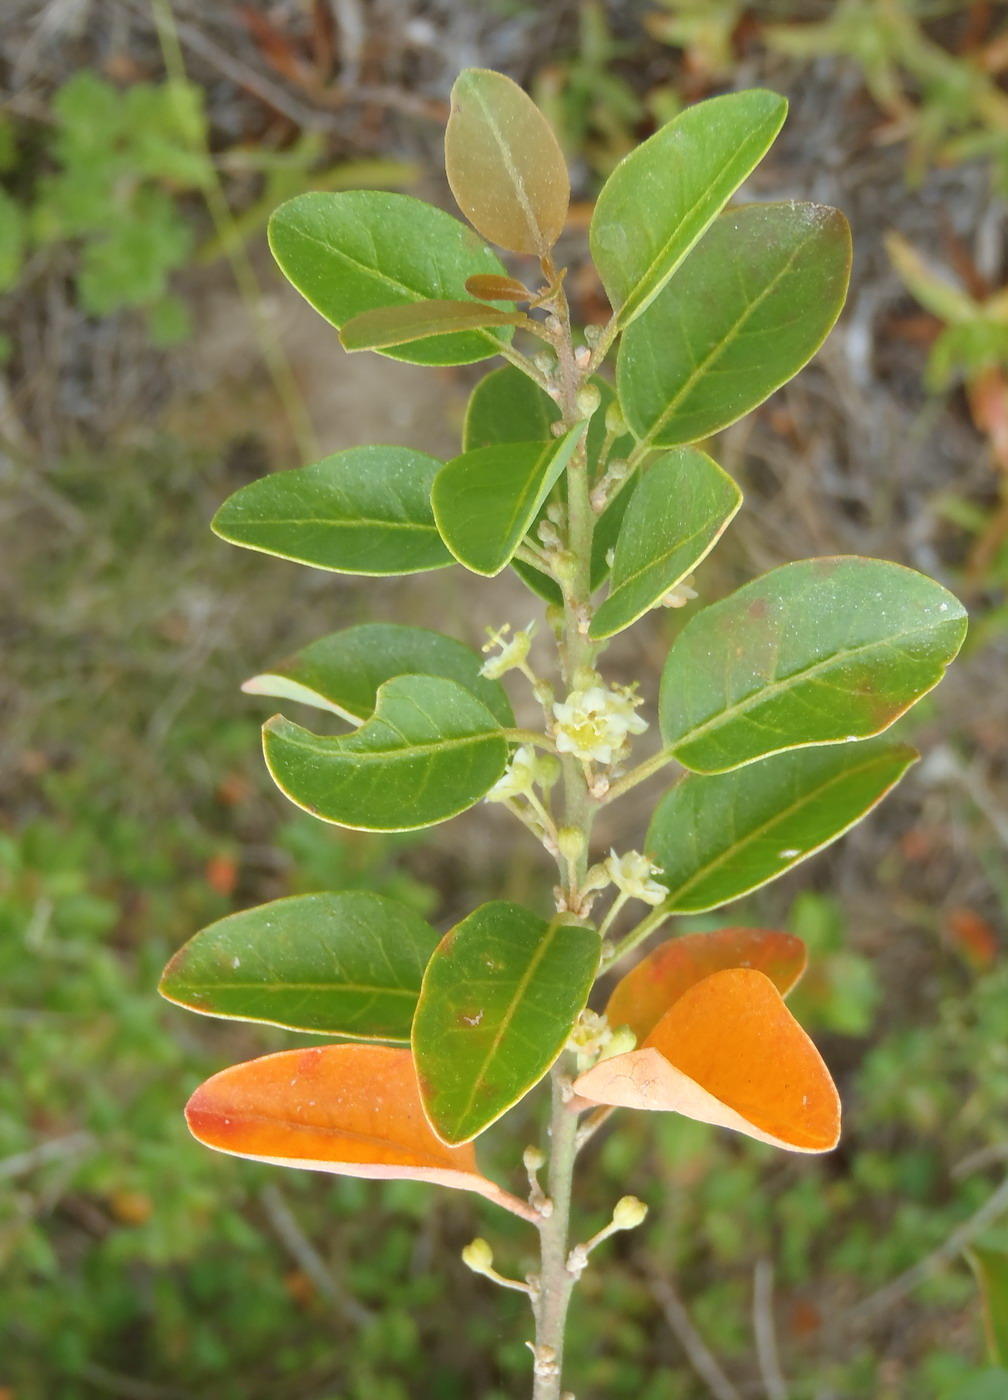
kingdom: Plantae
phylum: Tracheophyta
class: Magnoliopsida
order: Malpighiales
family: Peraceae
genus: Clutia
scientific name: Clutia pulchella
